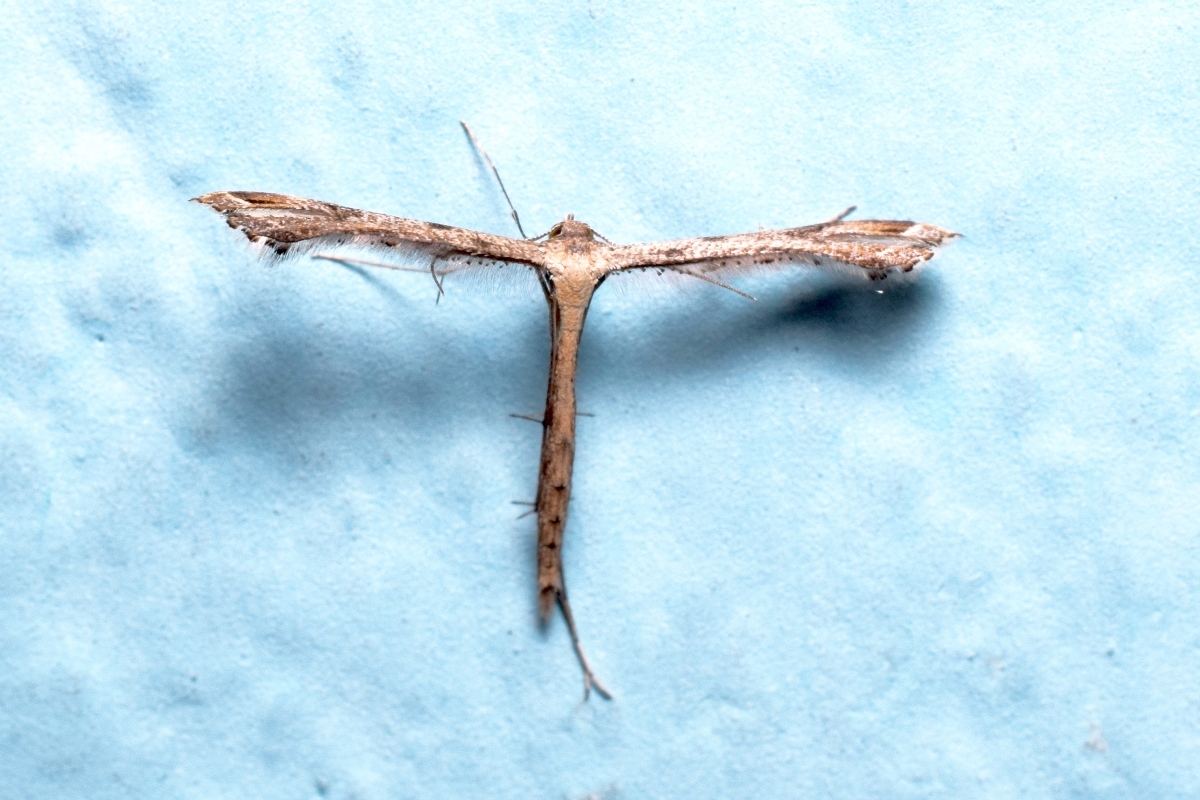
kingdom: Animalia
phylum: Arthropoda
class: Insecta
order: Lepidoptera
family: Pterophoridae
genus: Stenoptilodes
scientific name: Stenoptilodes taprobanes
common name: Moth
